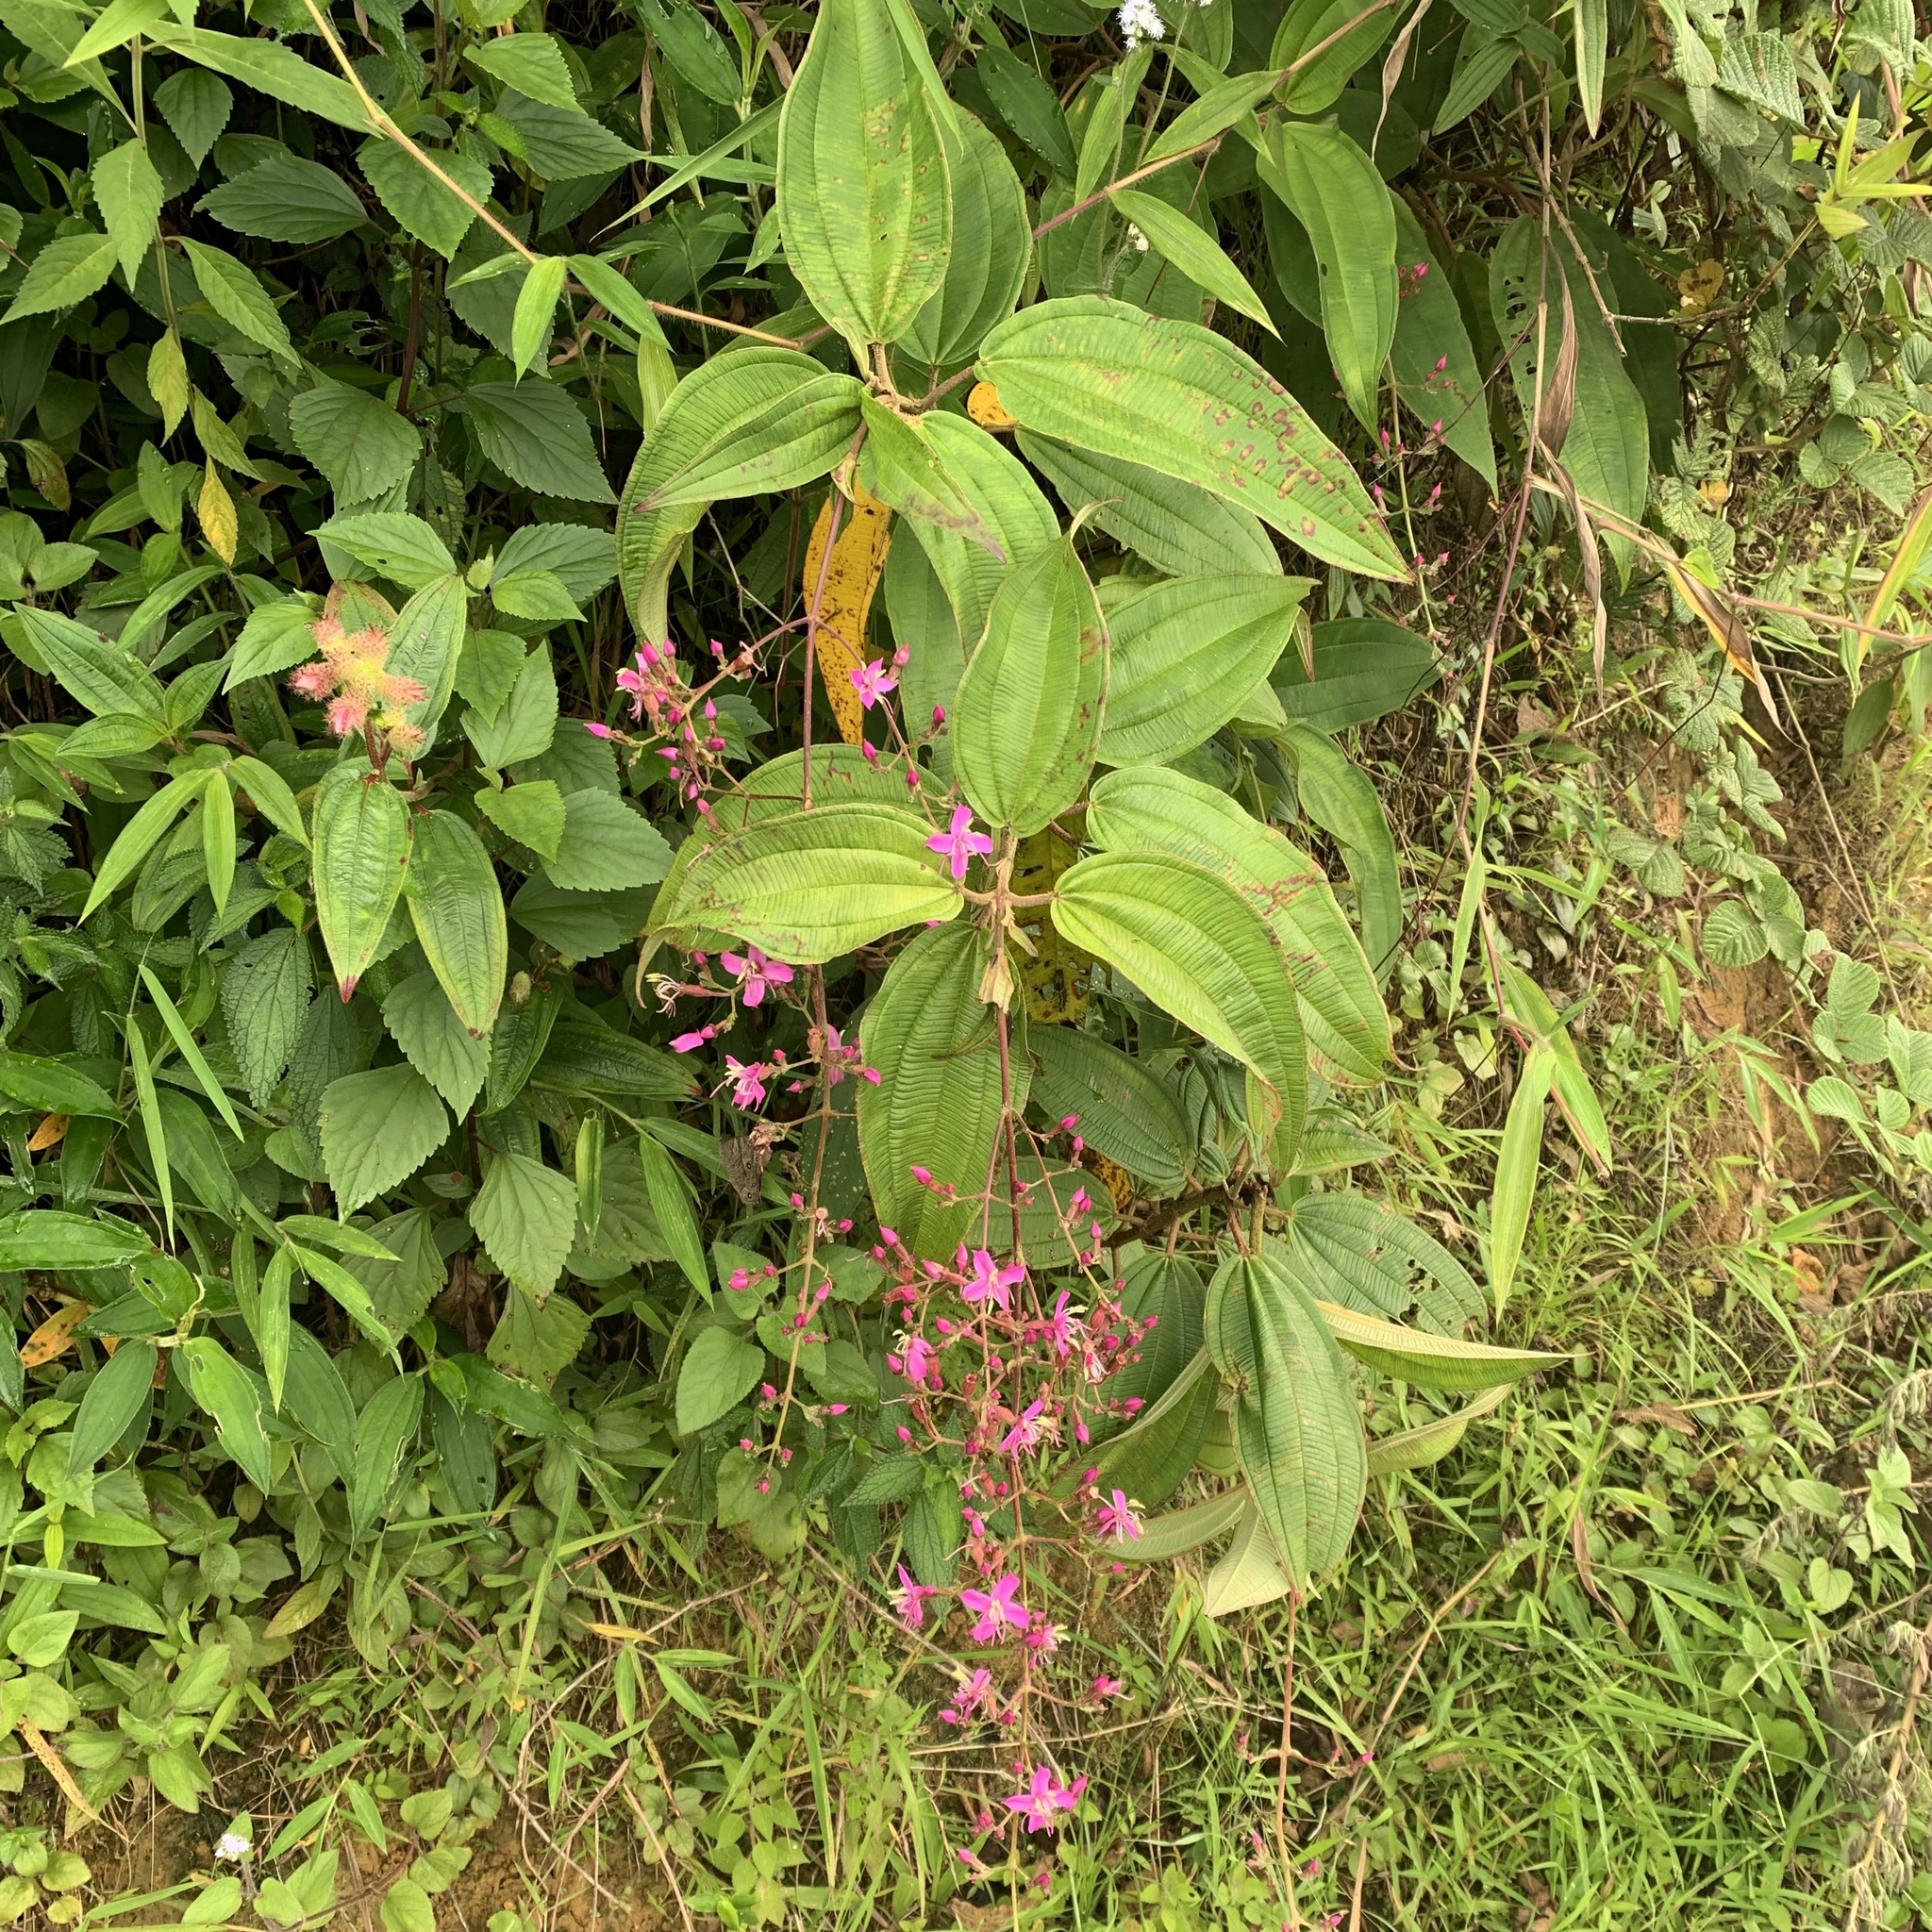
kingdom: Plantae
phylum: Tracheophyta
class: Magnoliopsida
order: Myrtales
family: Melastomataceae
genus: Oxyspora
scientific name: Oxyspora paniculata
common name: Bristletips
